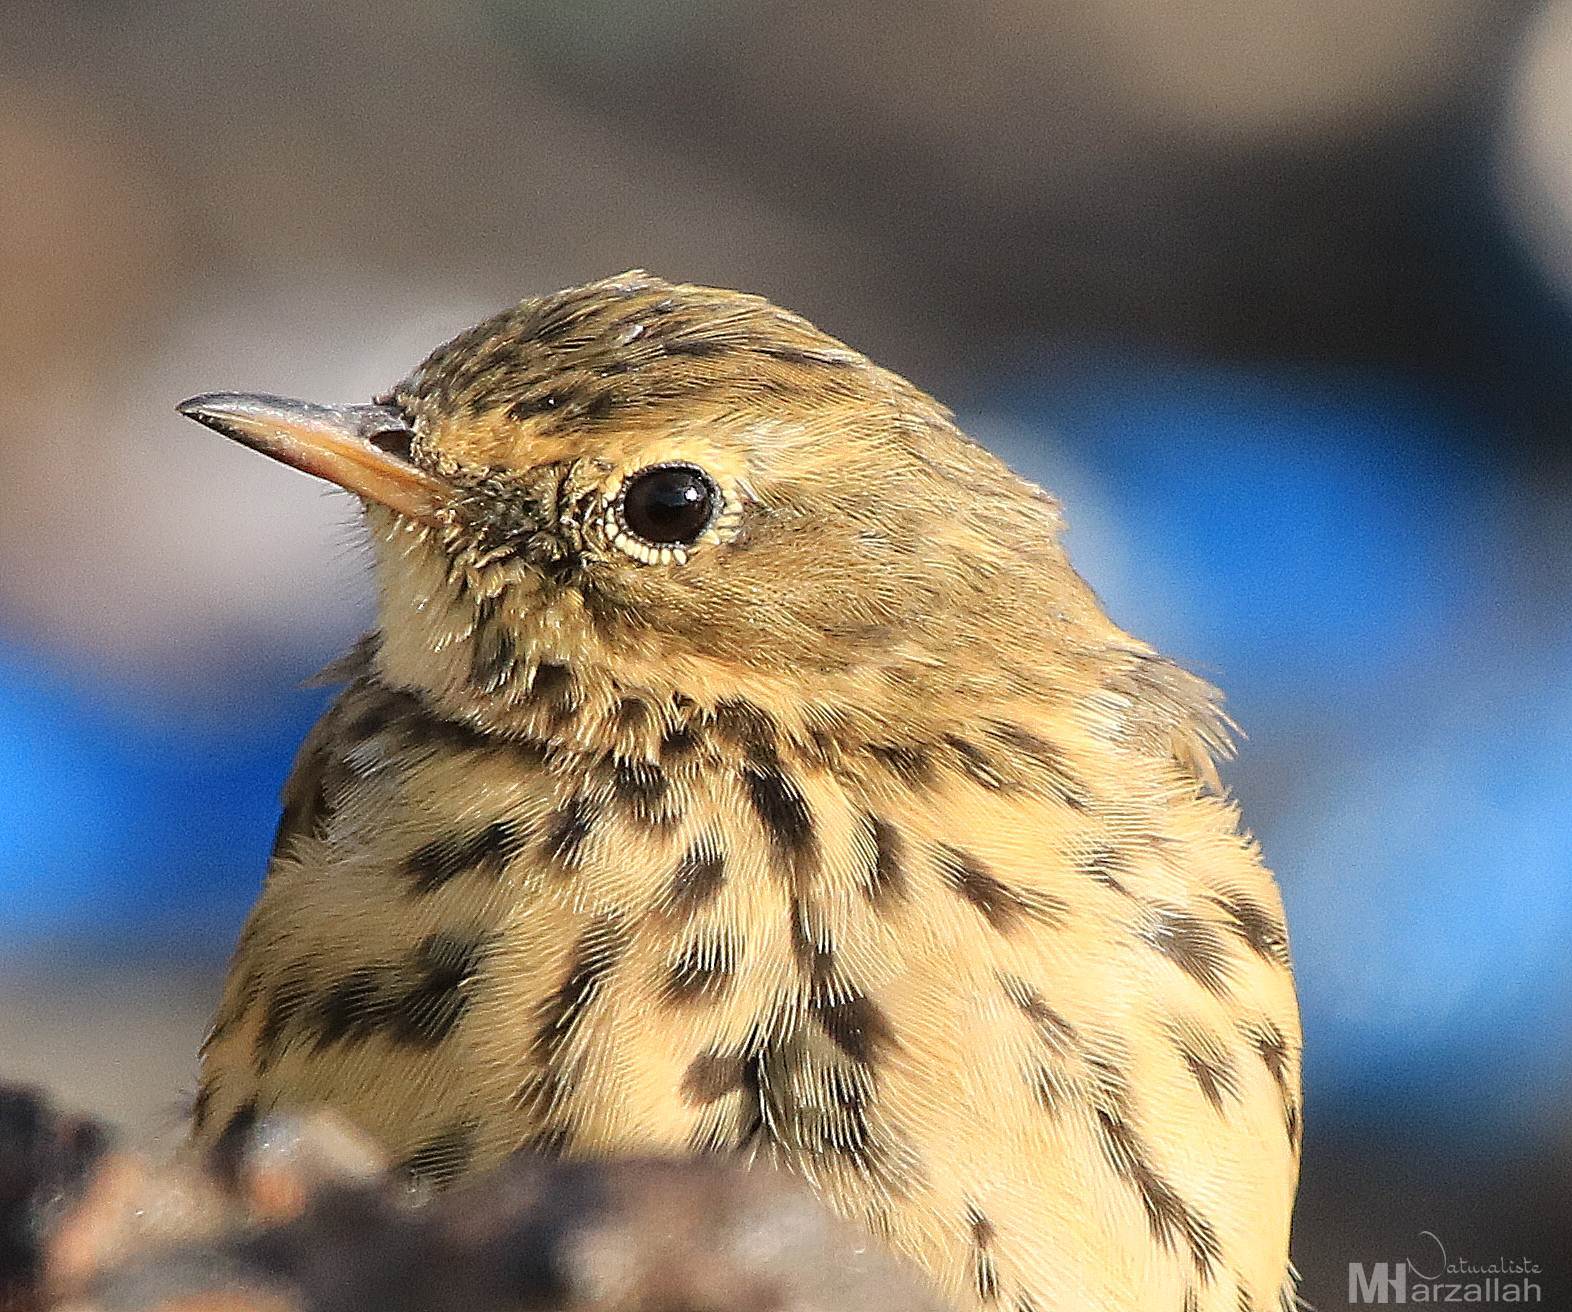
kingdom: Animalia
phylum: Chordata
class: Aves
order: Passeriformes
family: Motacillidae
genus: Anthus
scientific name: Anthus pratensis
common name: Meadow pipit
